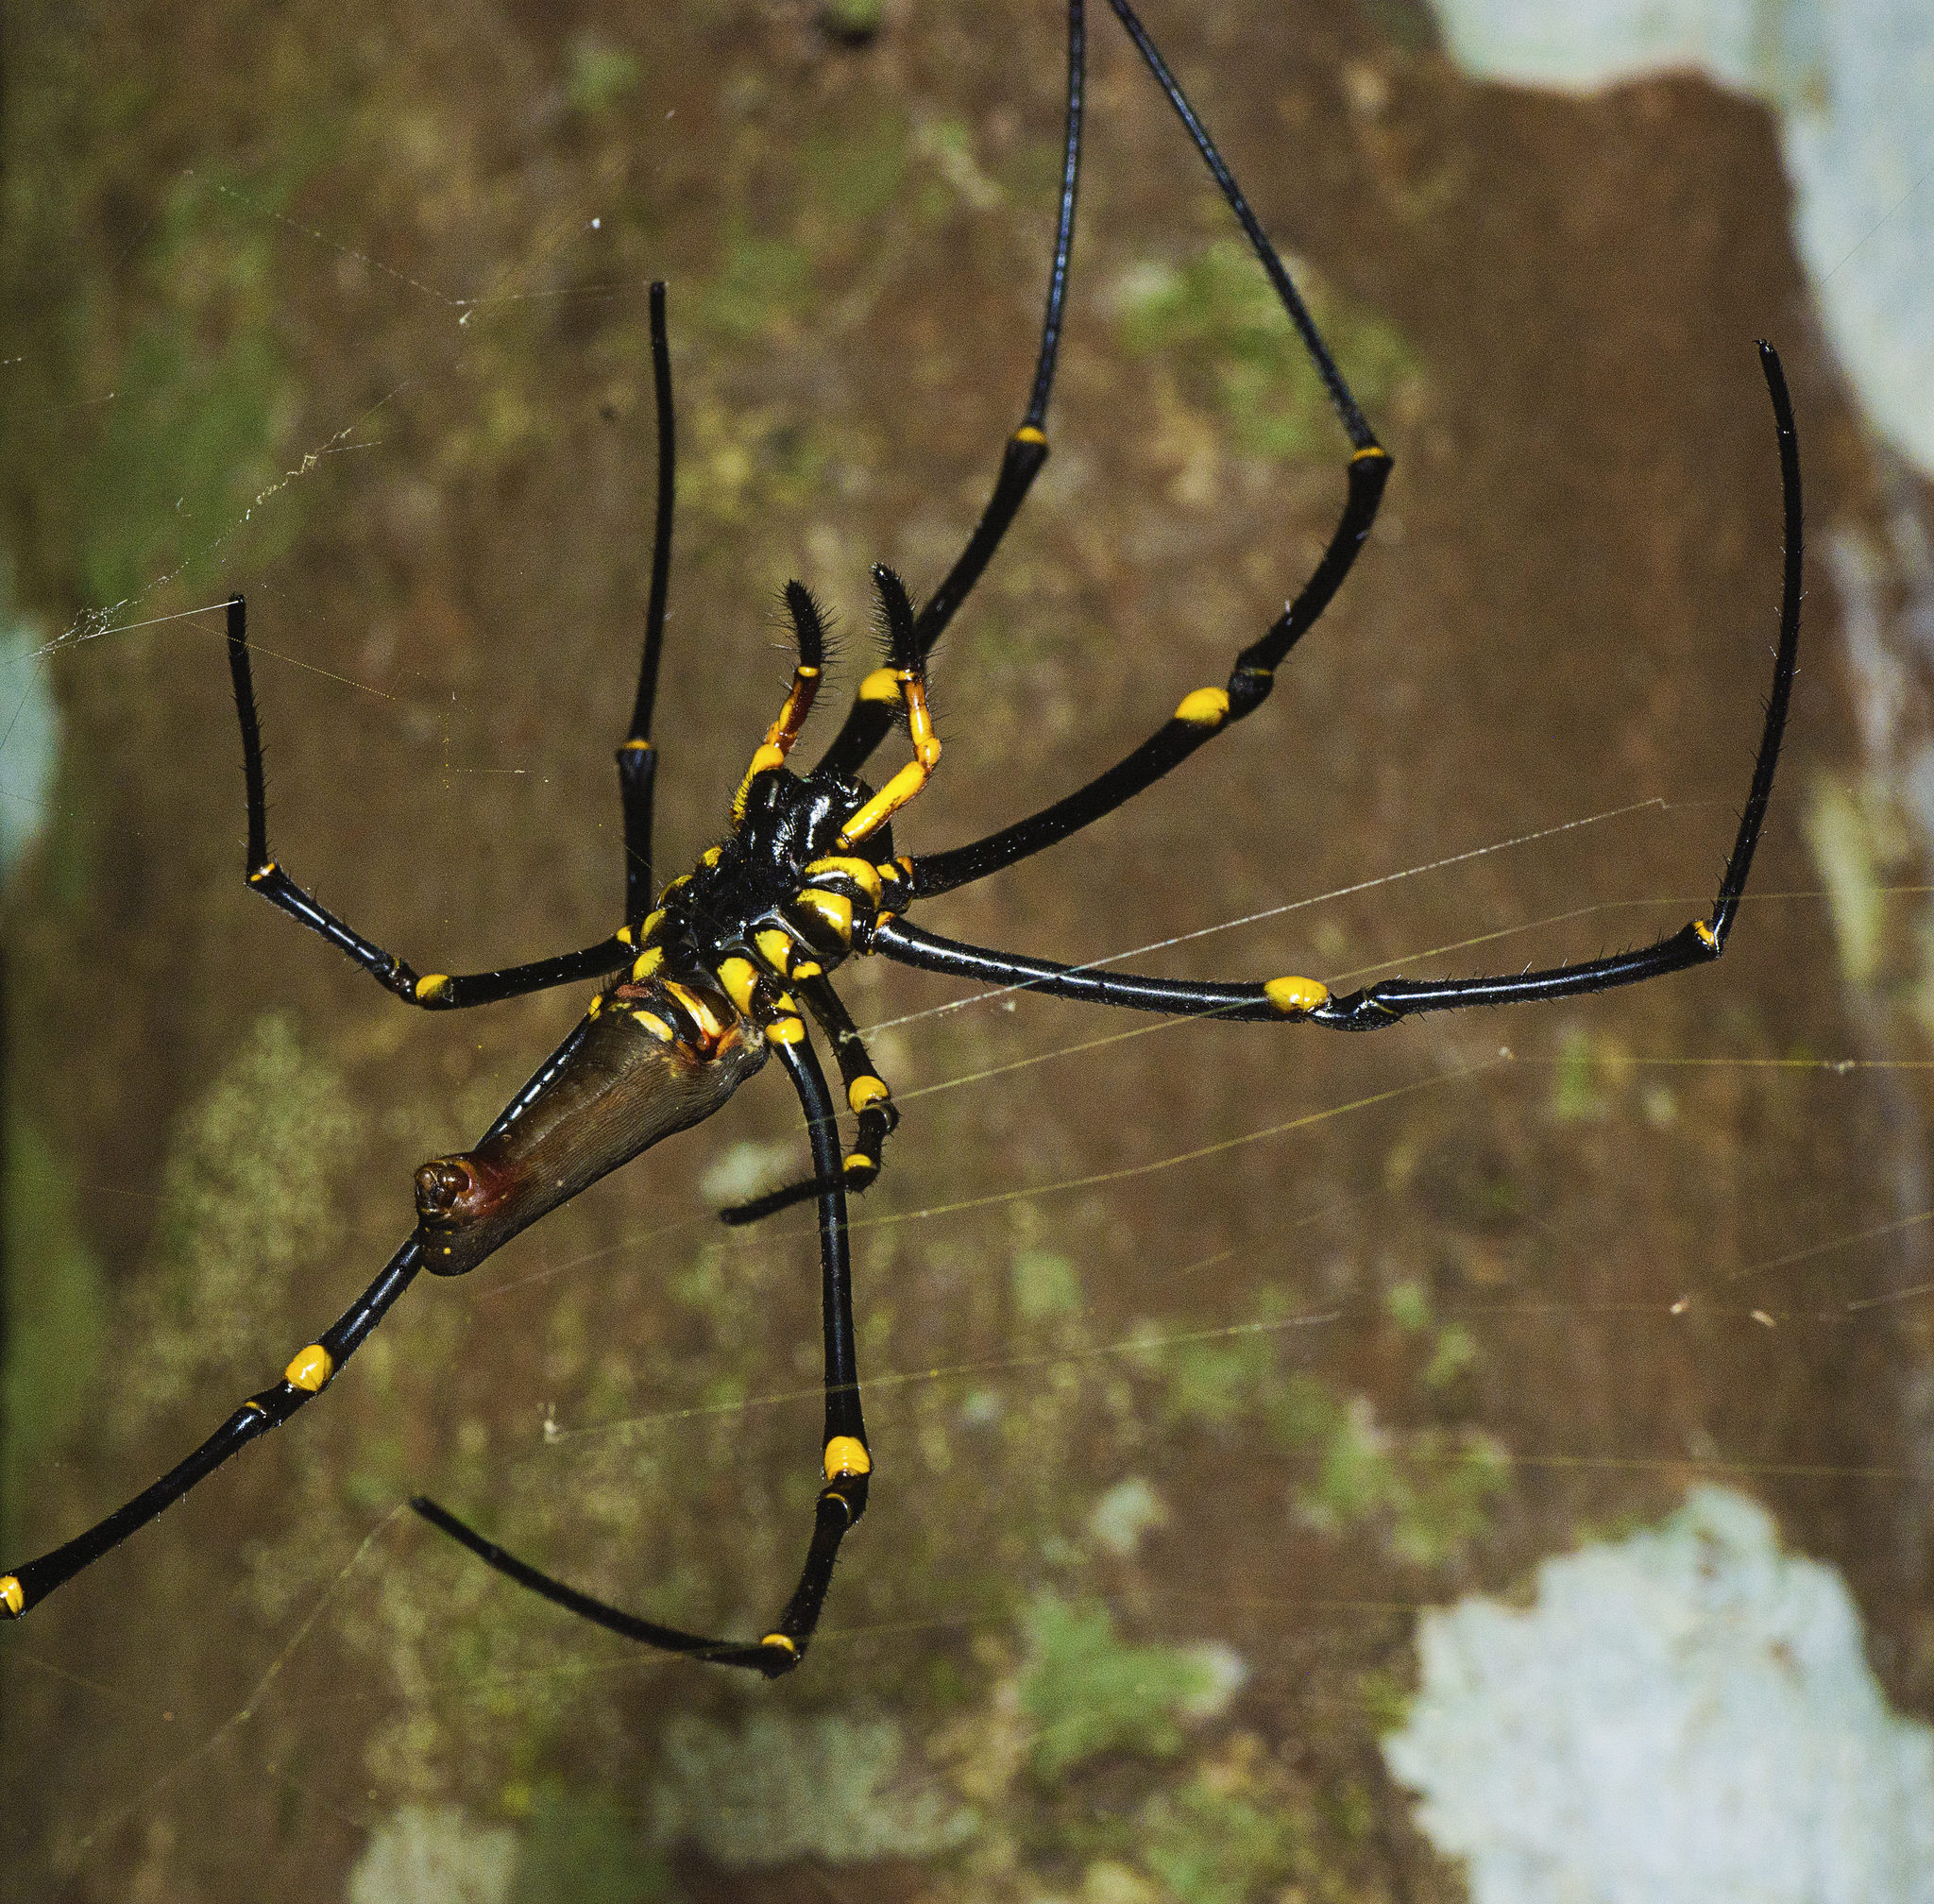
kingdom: Animalia
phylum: Arthropoda
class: Arachnida
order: Araneae
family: Araneidae
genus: Nephila
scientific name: Nephila pilipes
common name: Giant golden orb weaver
